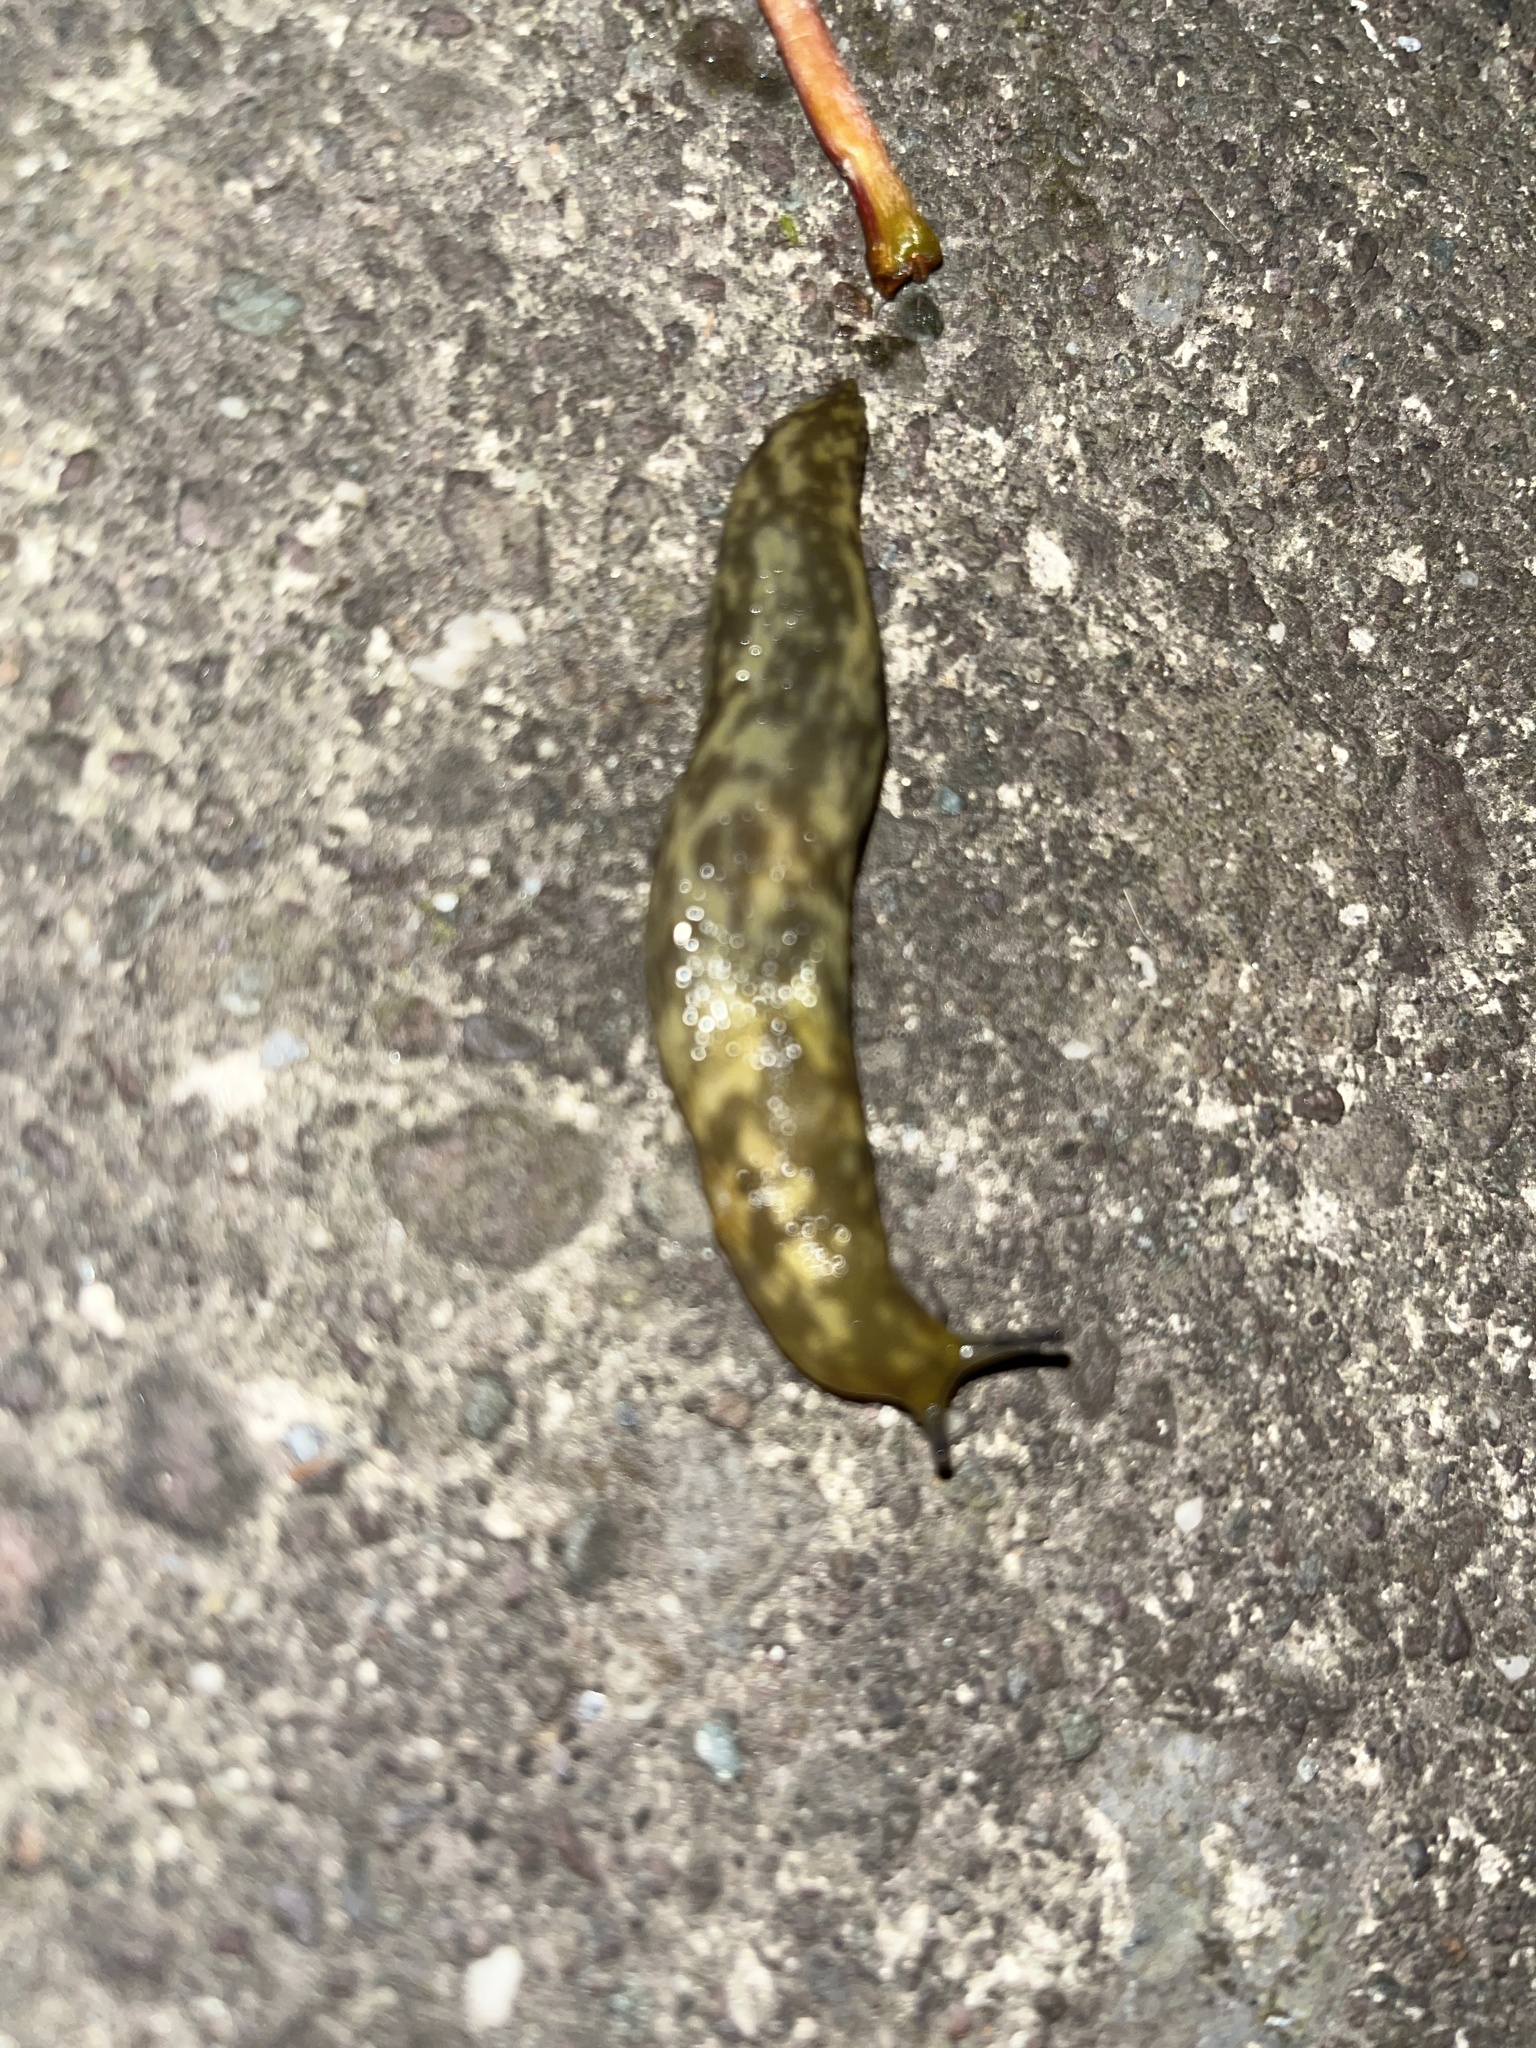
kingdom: Animalia
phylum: Mollusca
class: Gastropoda
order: Stylommatophora
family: Limacidae
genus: Limacus
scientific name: Limacus maculatus
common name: Irish yellow slug
